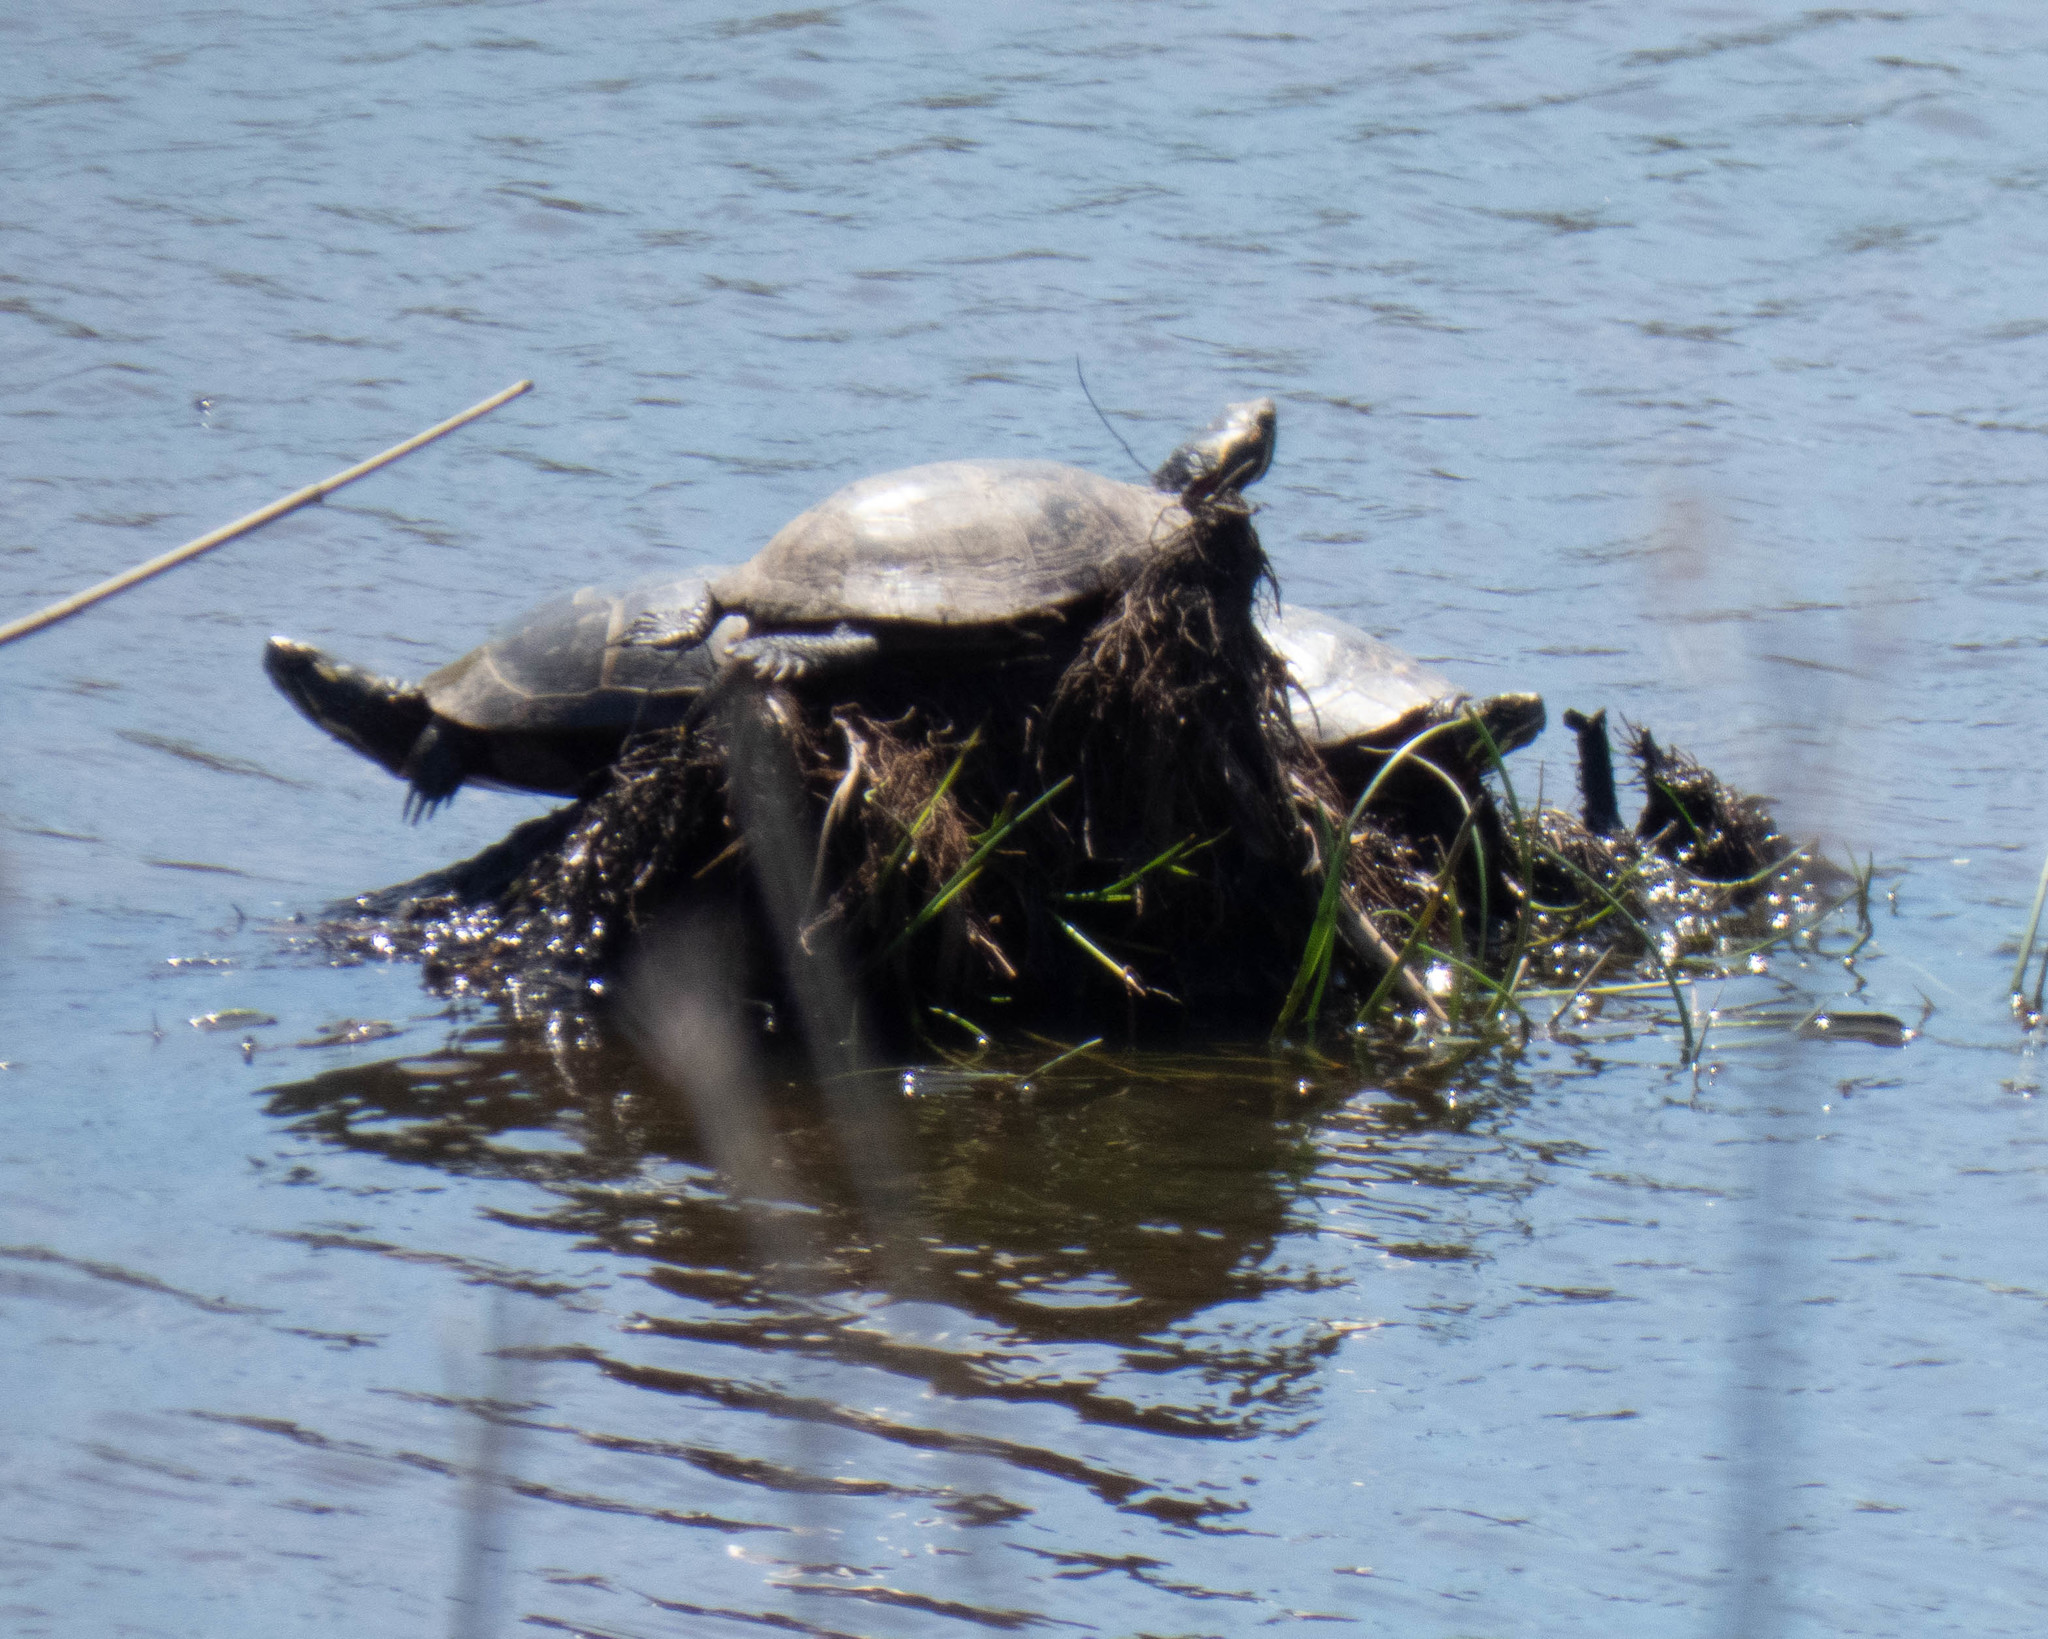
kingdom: Animalia
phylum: Chordata
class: Testudines
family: Emydidae
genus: Chrysemys
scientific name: Chrysemys picta
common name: Painted turtle
